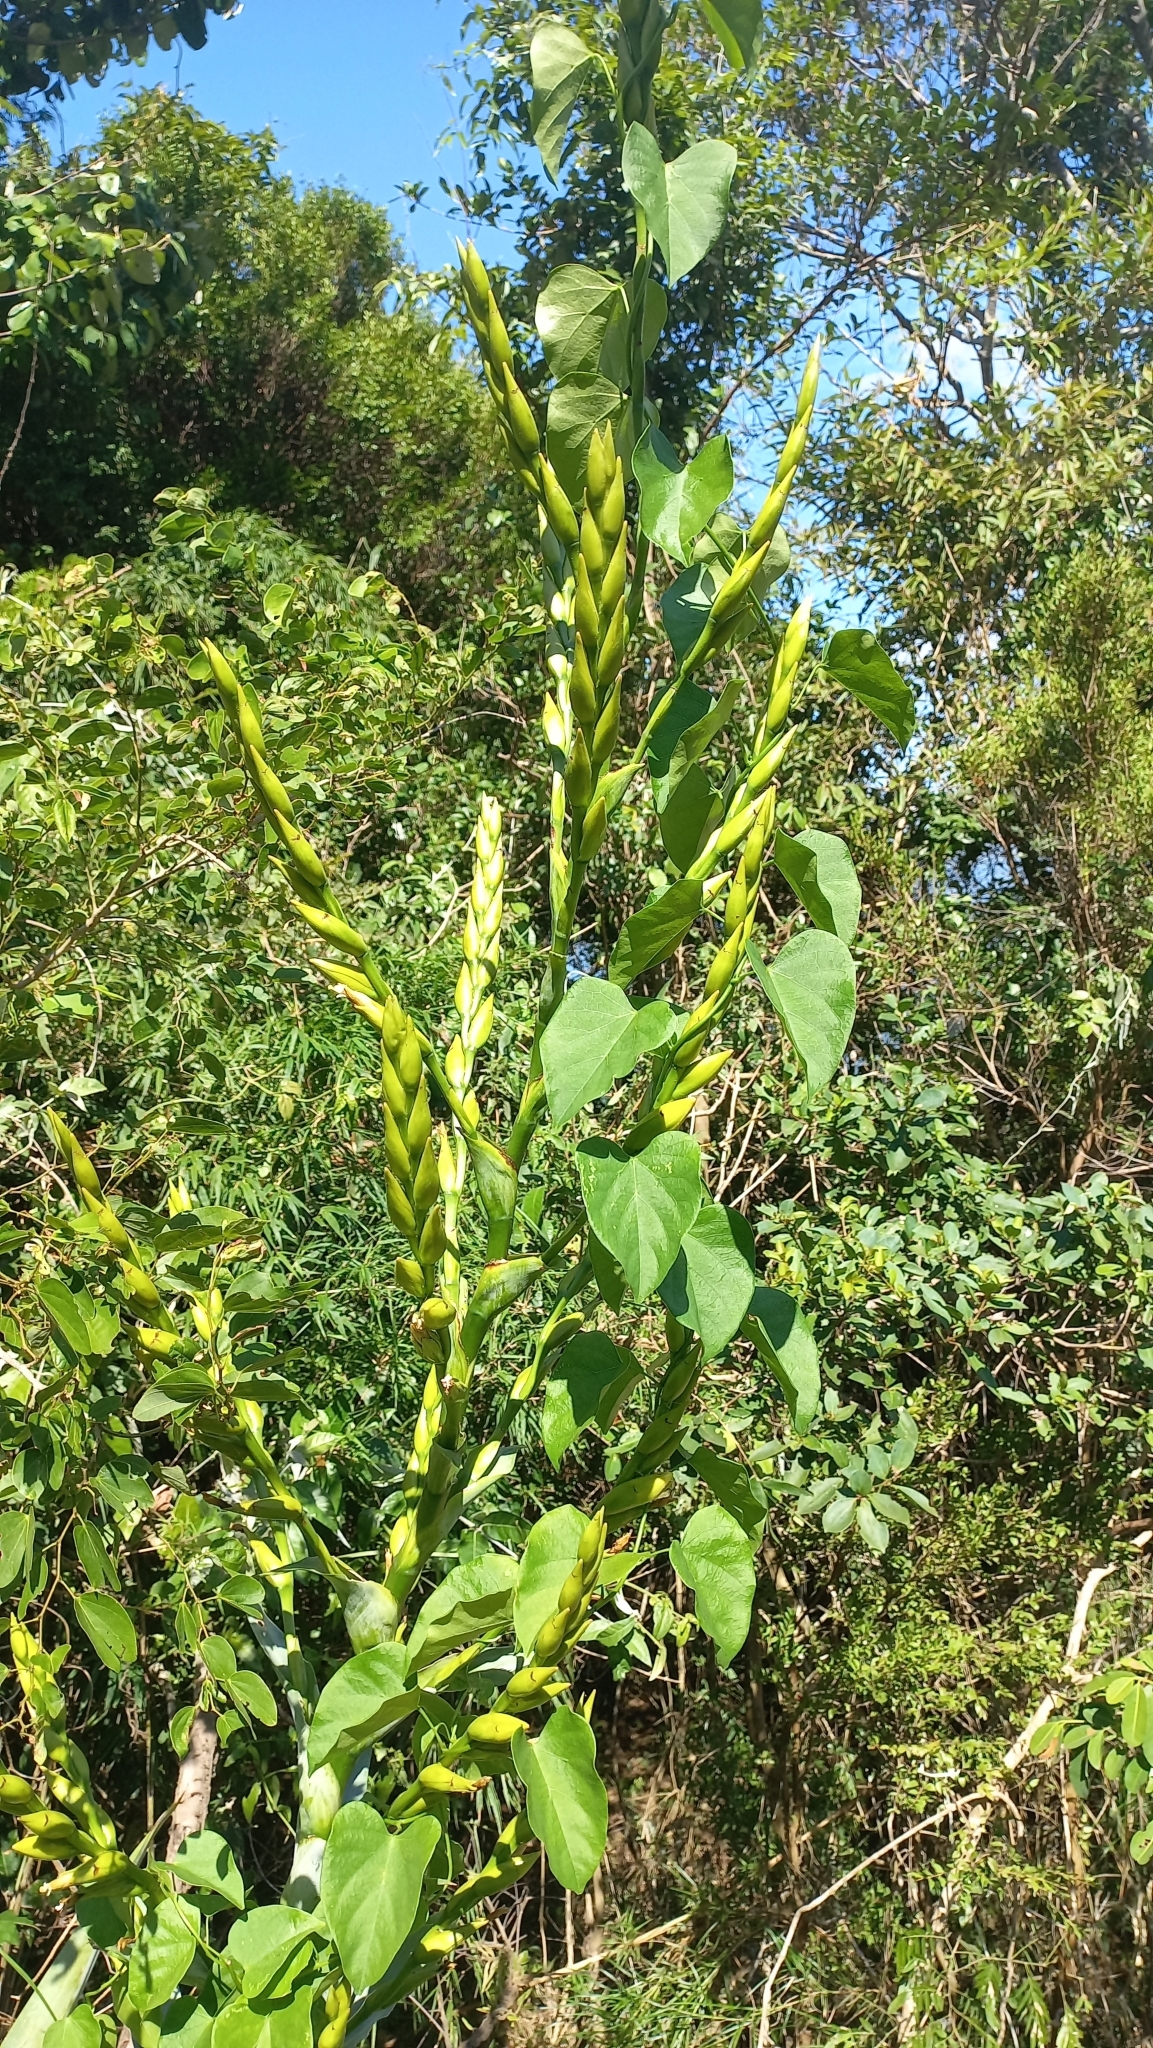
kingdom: Plantae
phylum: Tracheophyta
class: Liliopsida
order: Poales
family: Bromeliaceae
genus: Vriesea
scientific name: Vriesea gigantea
